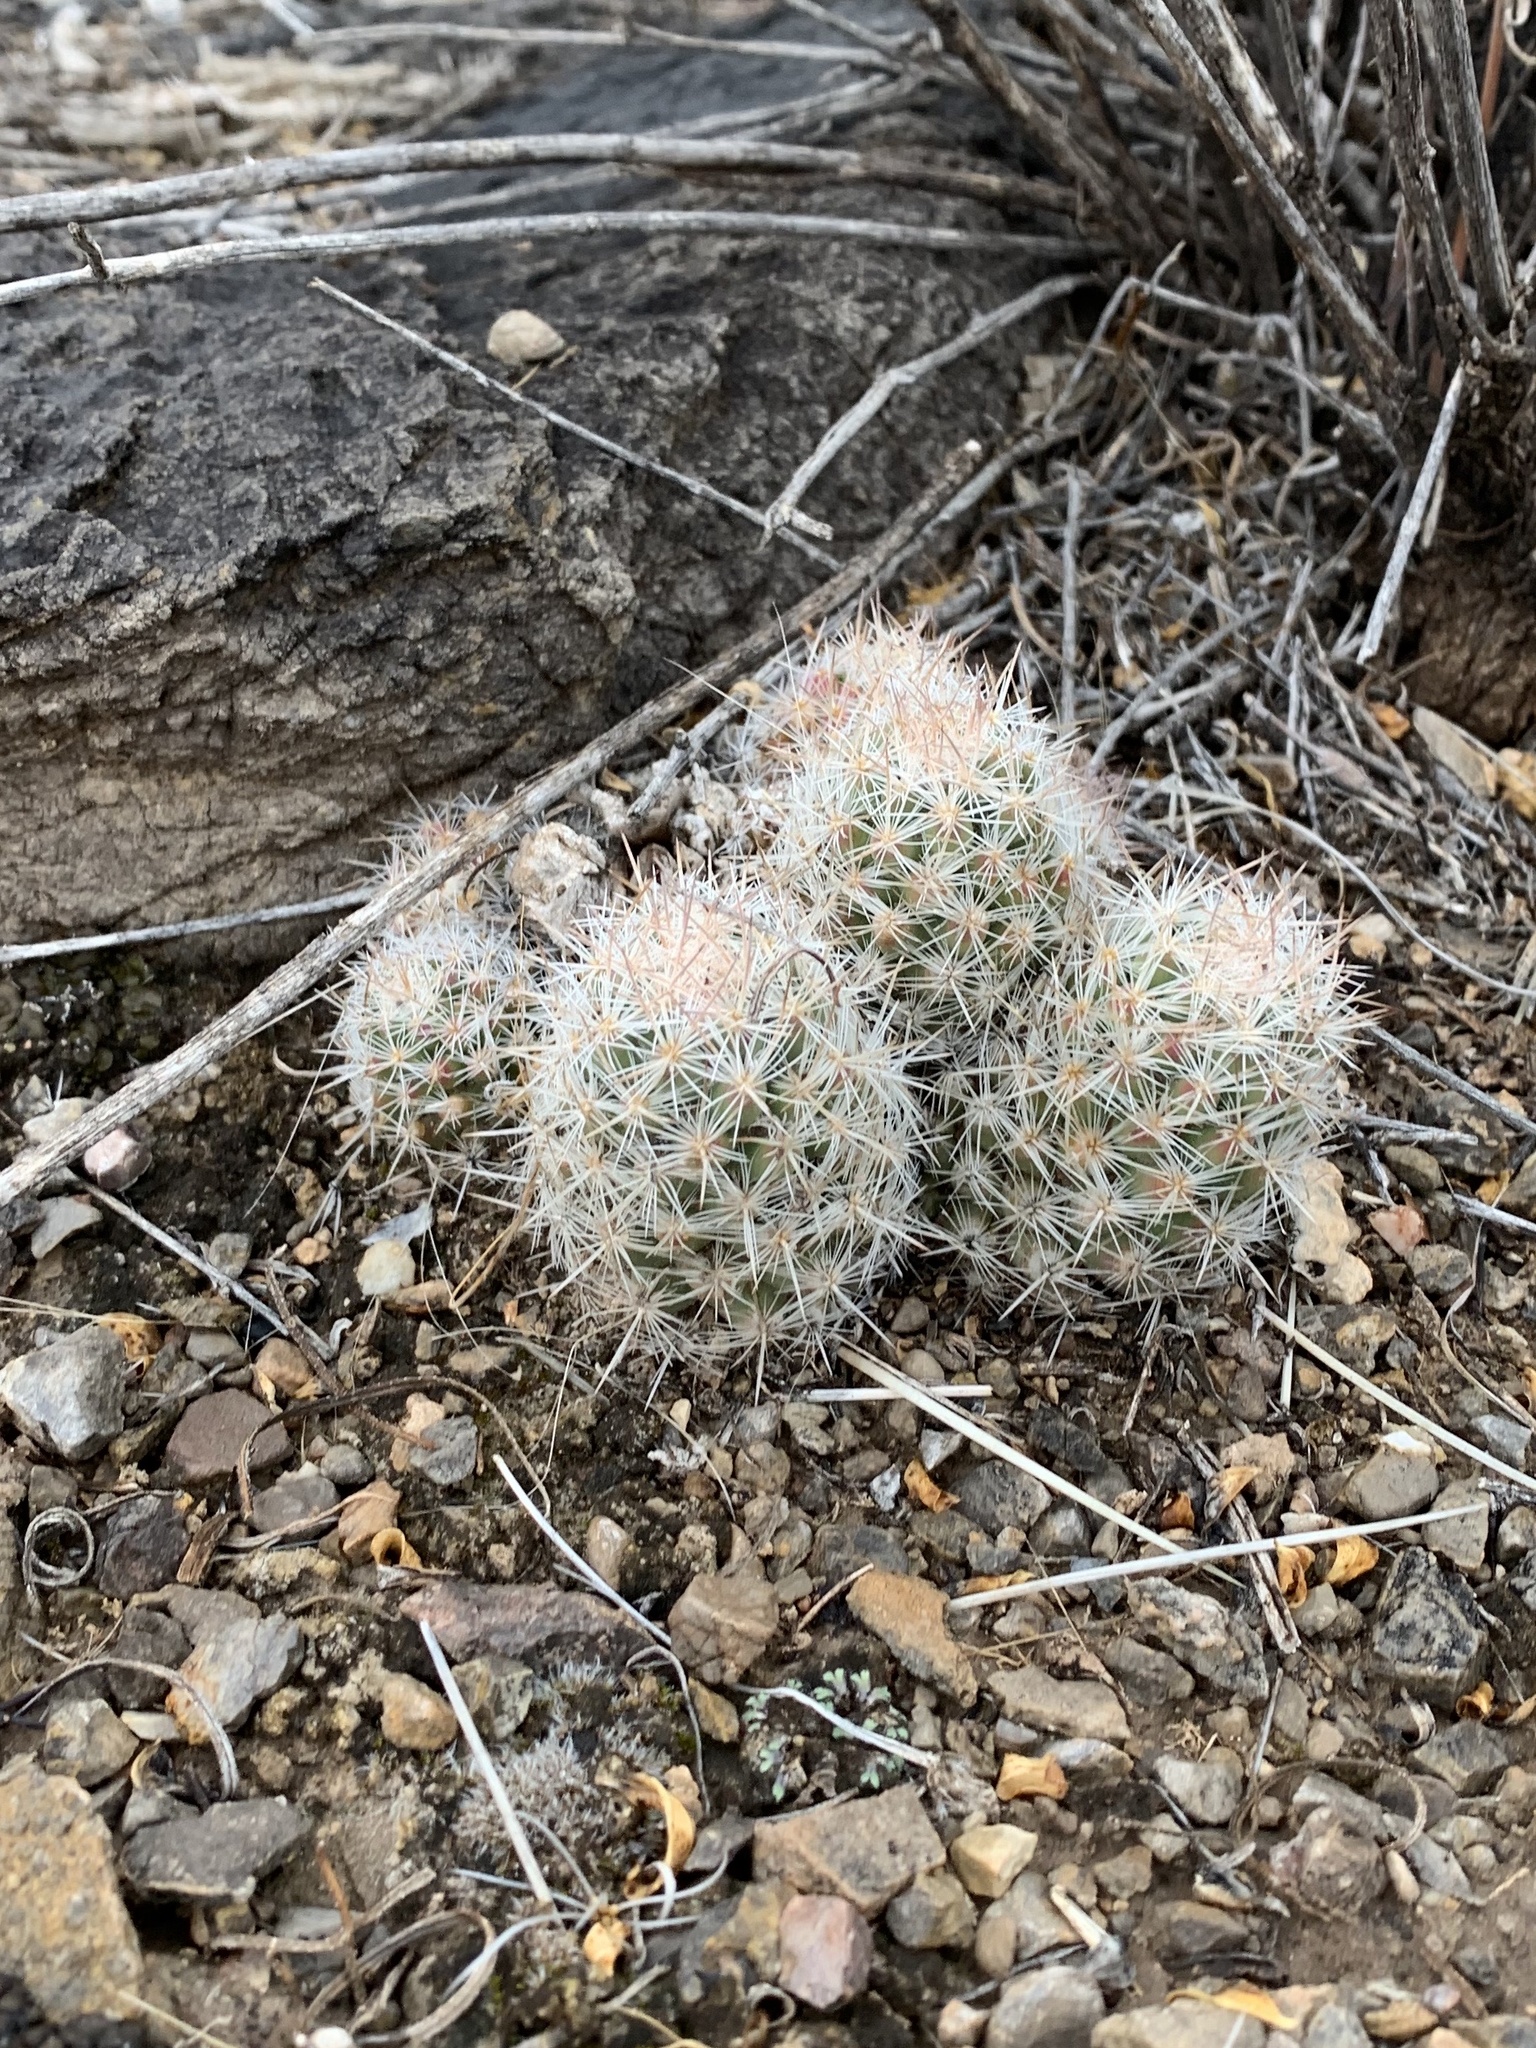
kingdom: Plantae
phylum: Tracheophyta
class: Magnoliopsida
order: Caryophyllales
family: Cactaceae
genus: Pelecyphora
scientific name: Pelecyphora tuberculosa
